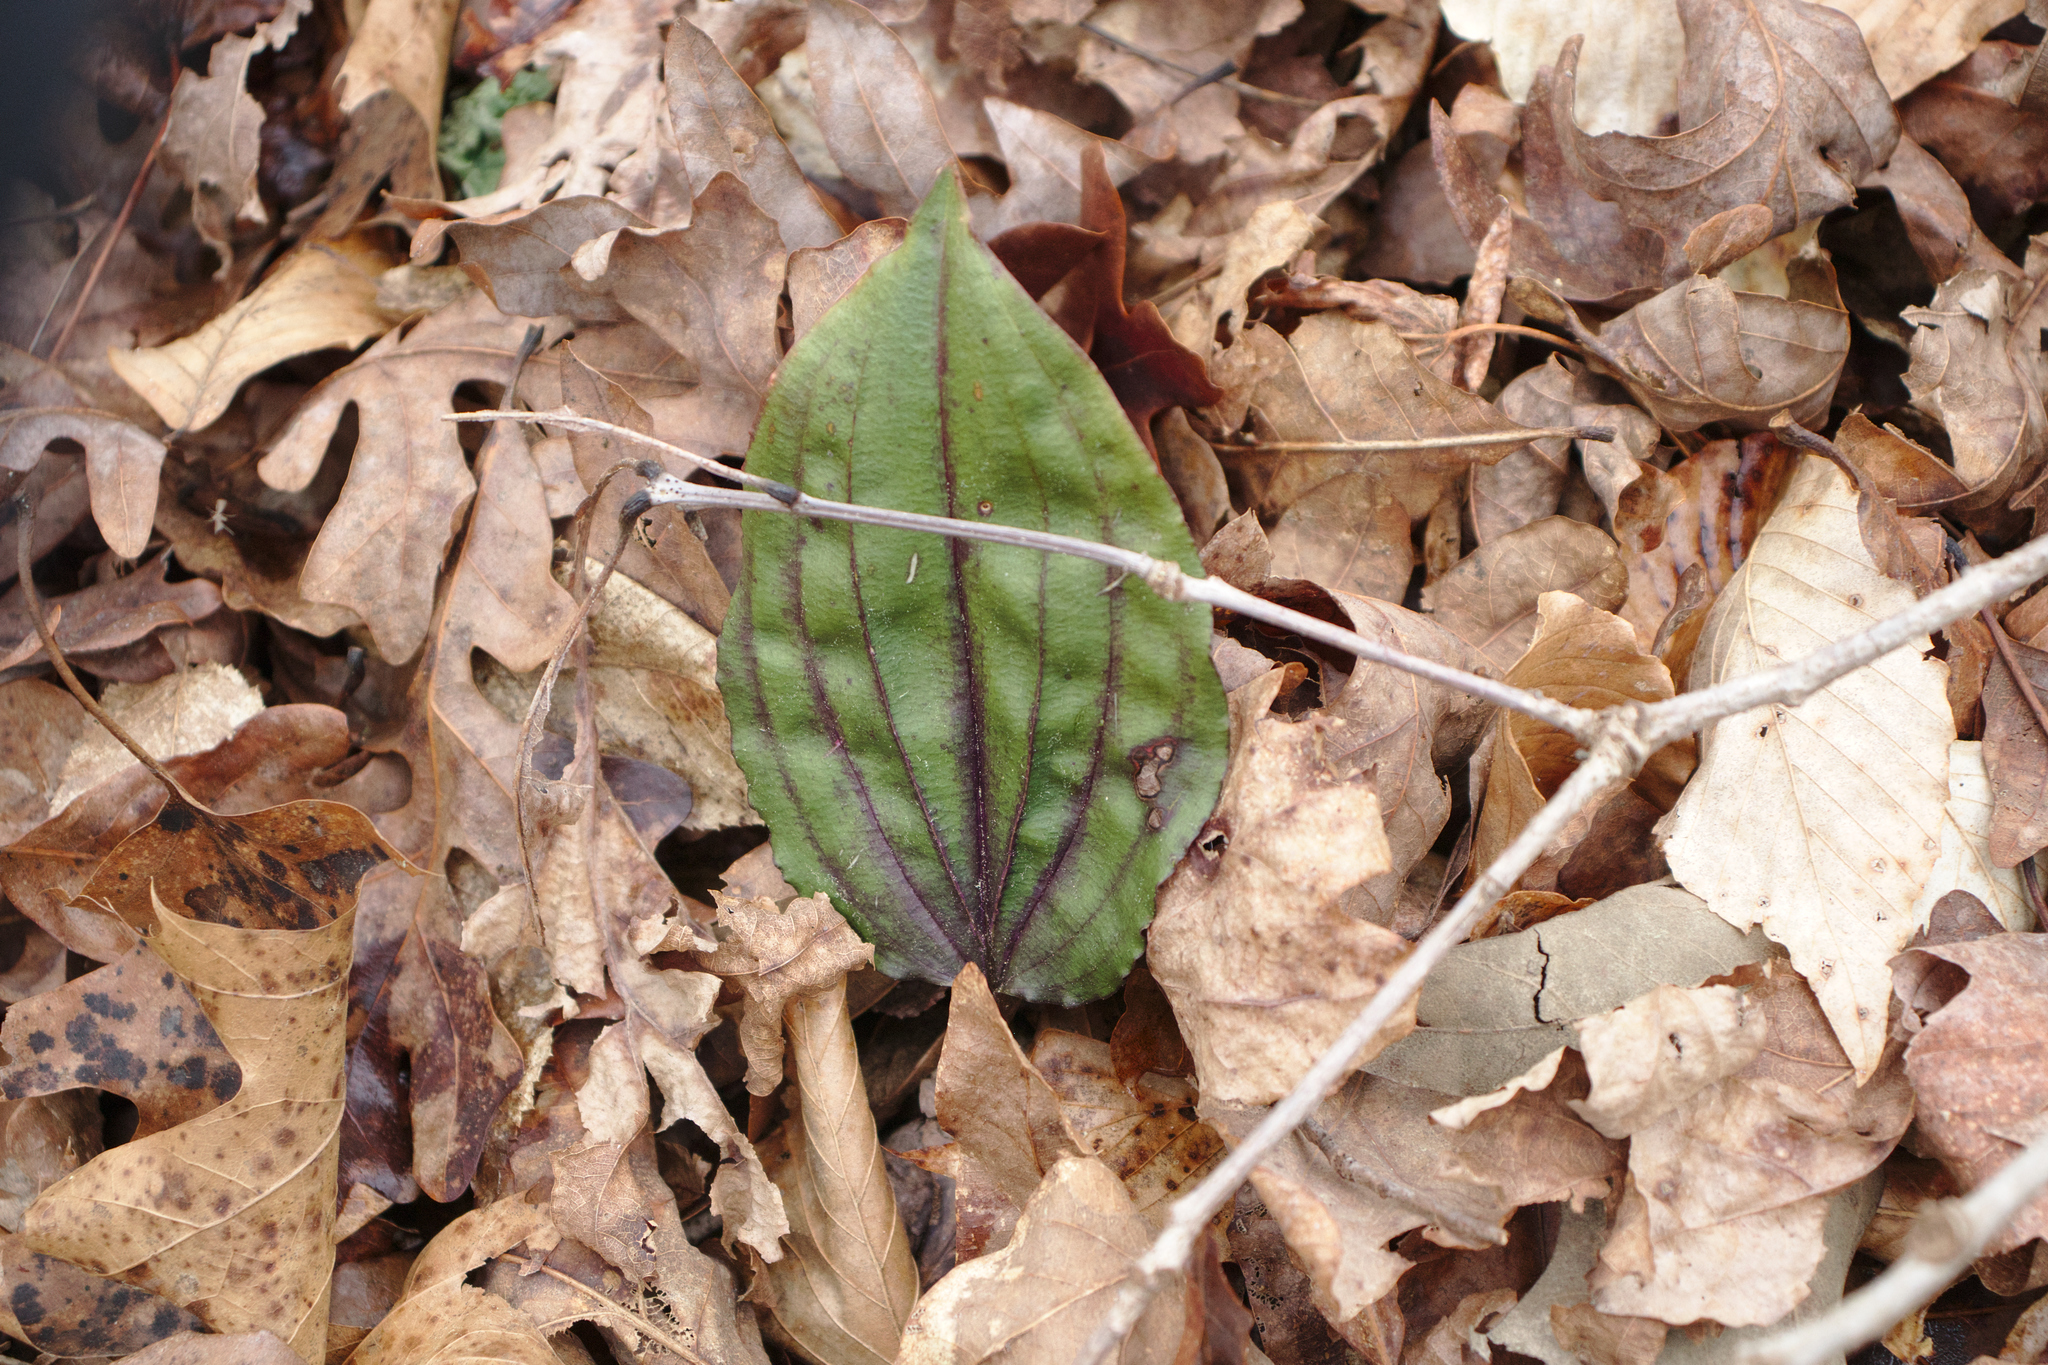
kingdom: Plantae
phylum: Tracheophyta
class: Liliopsida
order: Asparagales
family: Orchidaceae
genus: Tipularia
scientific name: Tipularia discolor
